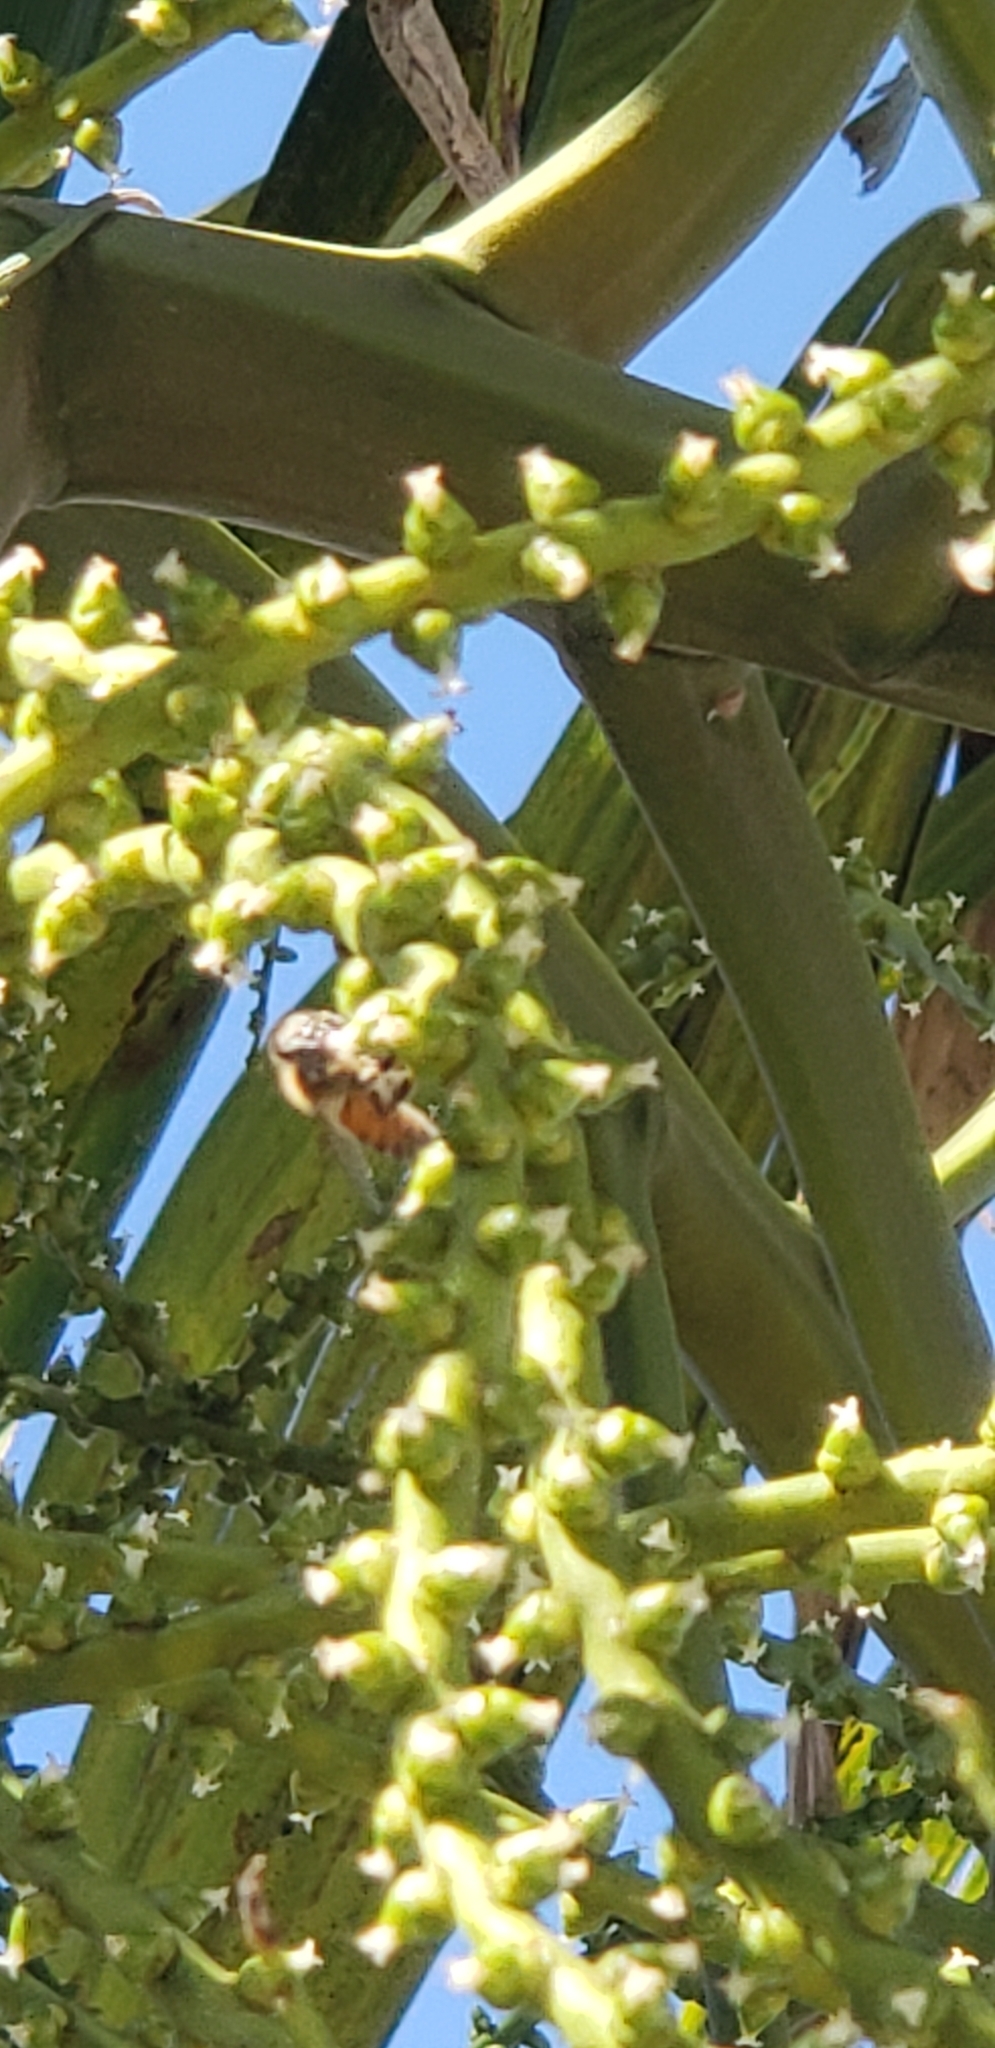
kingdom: Animalia
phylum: Arthropoda
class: Insecta
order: Hymenoptera
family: Apidae
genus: Apis
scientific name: Apis mellifera
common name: Honey bee
